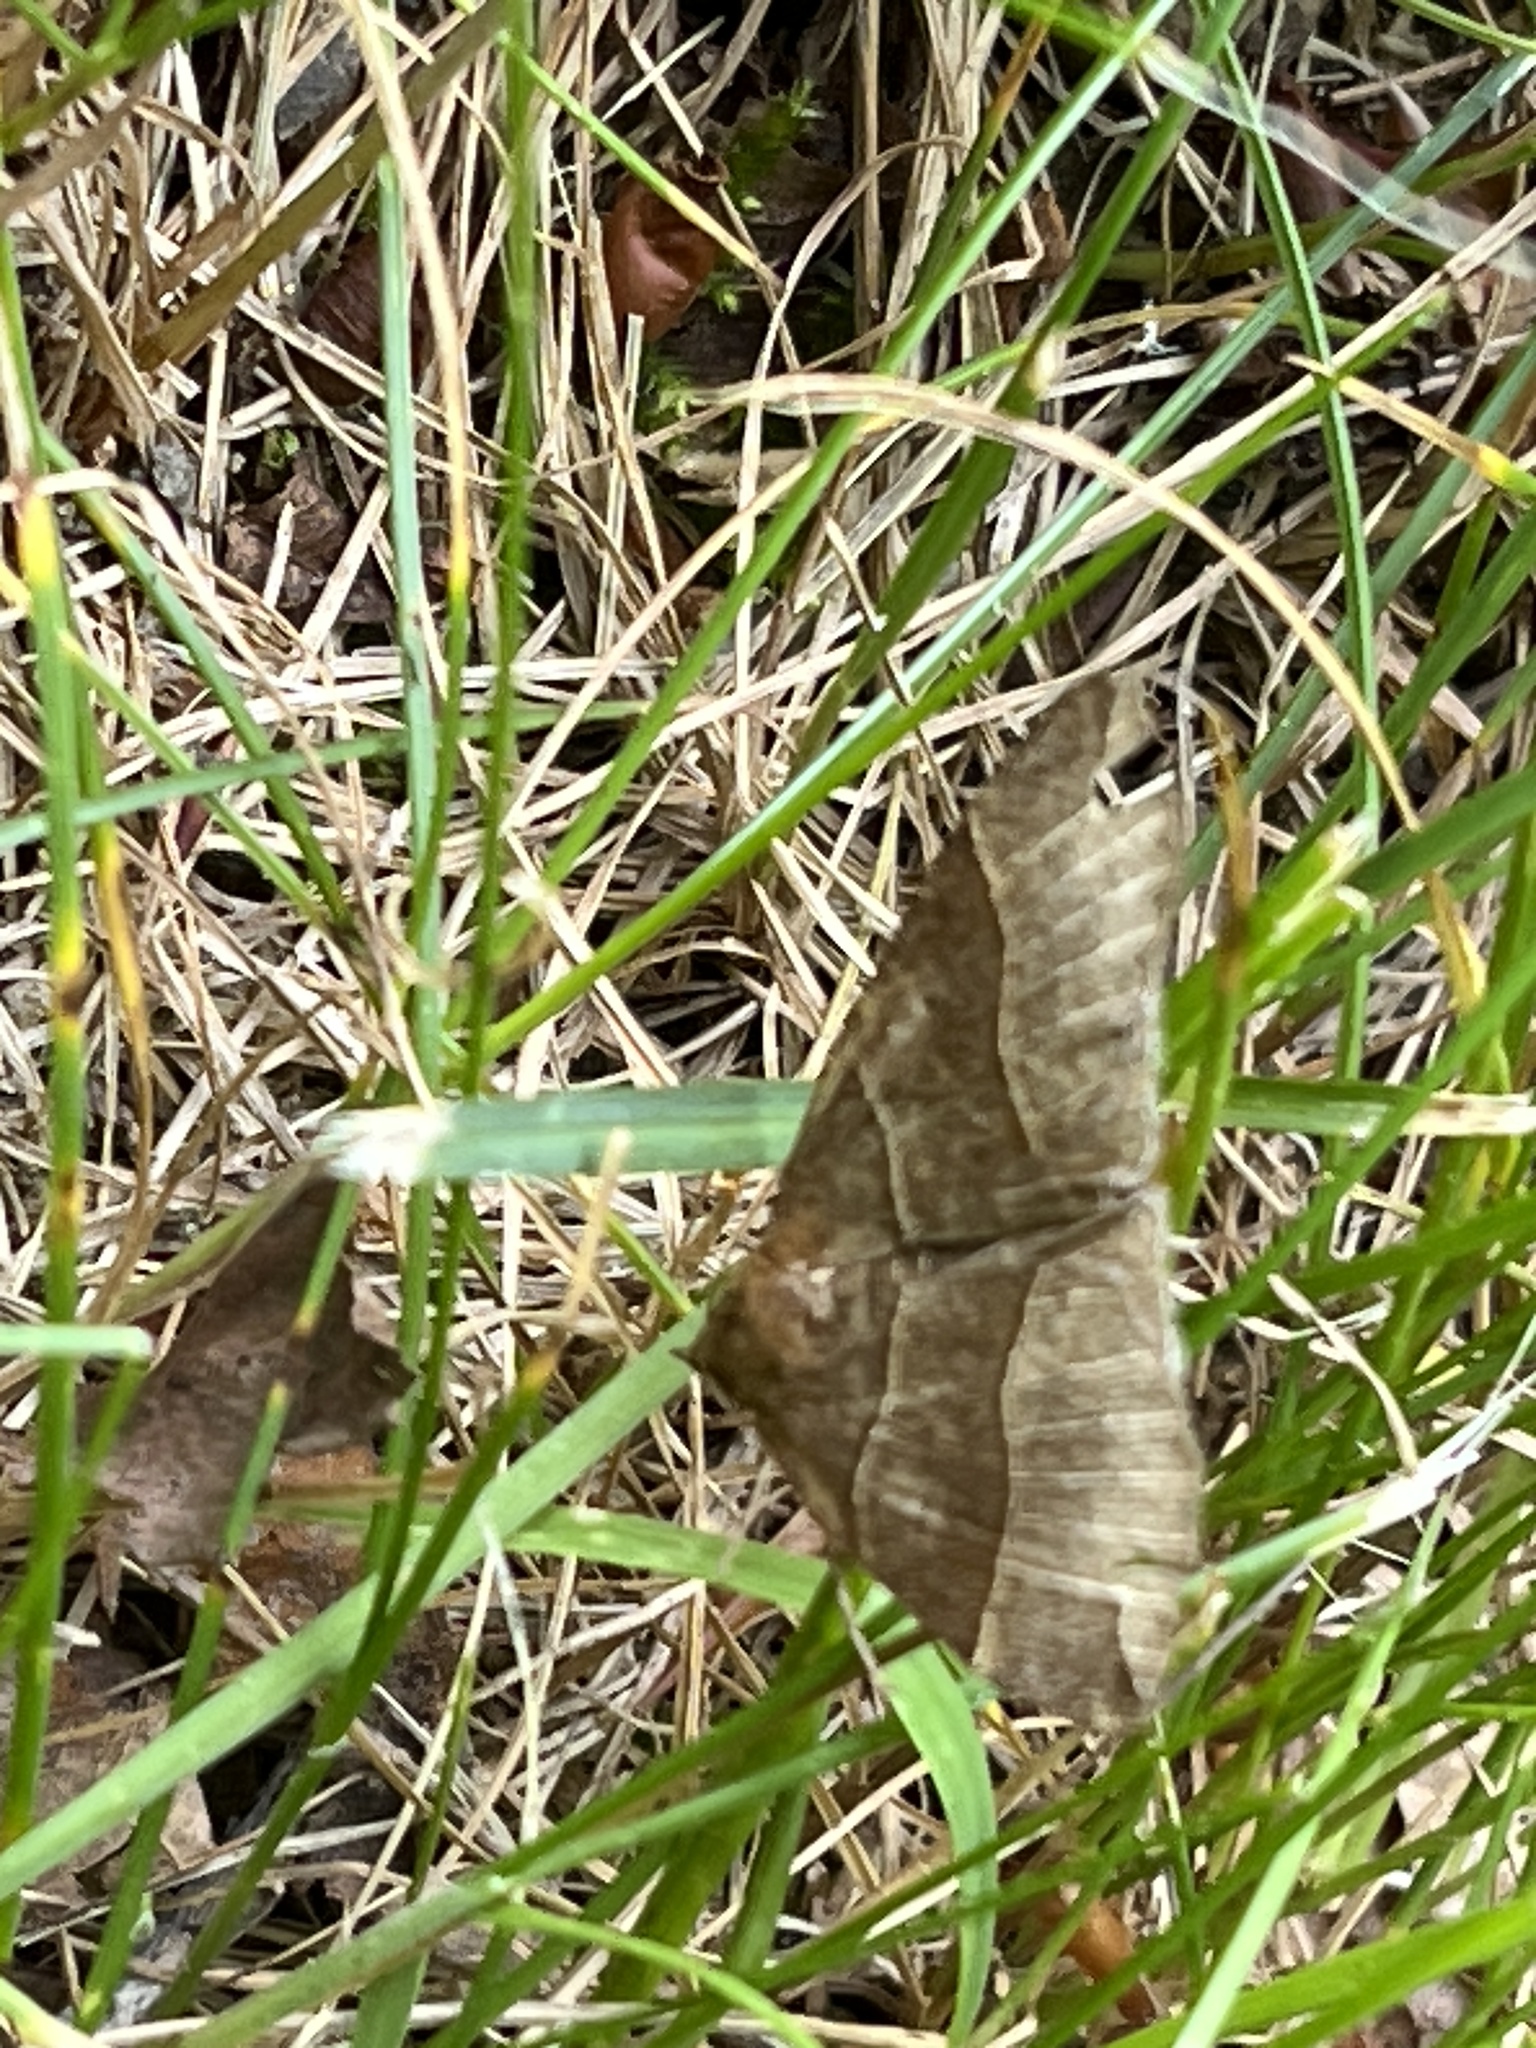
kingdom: Animalia
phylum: Arthropoda
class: Insecta
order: Lepidoptera
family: Erebidae
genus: Parallelia
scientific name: Parallelia bistriaris
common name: Maple looper moth
